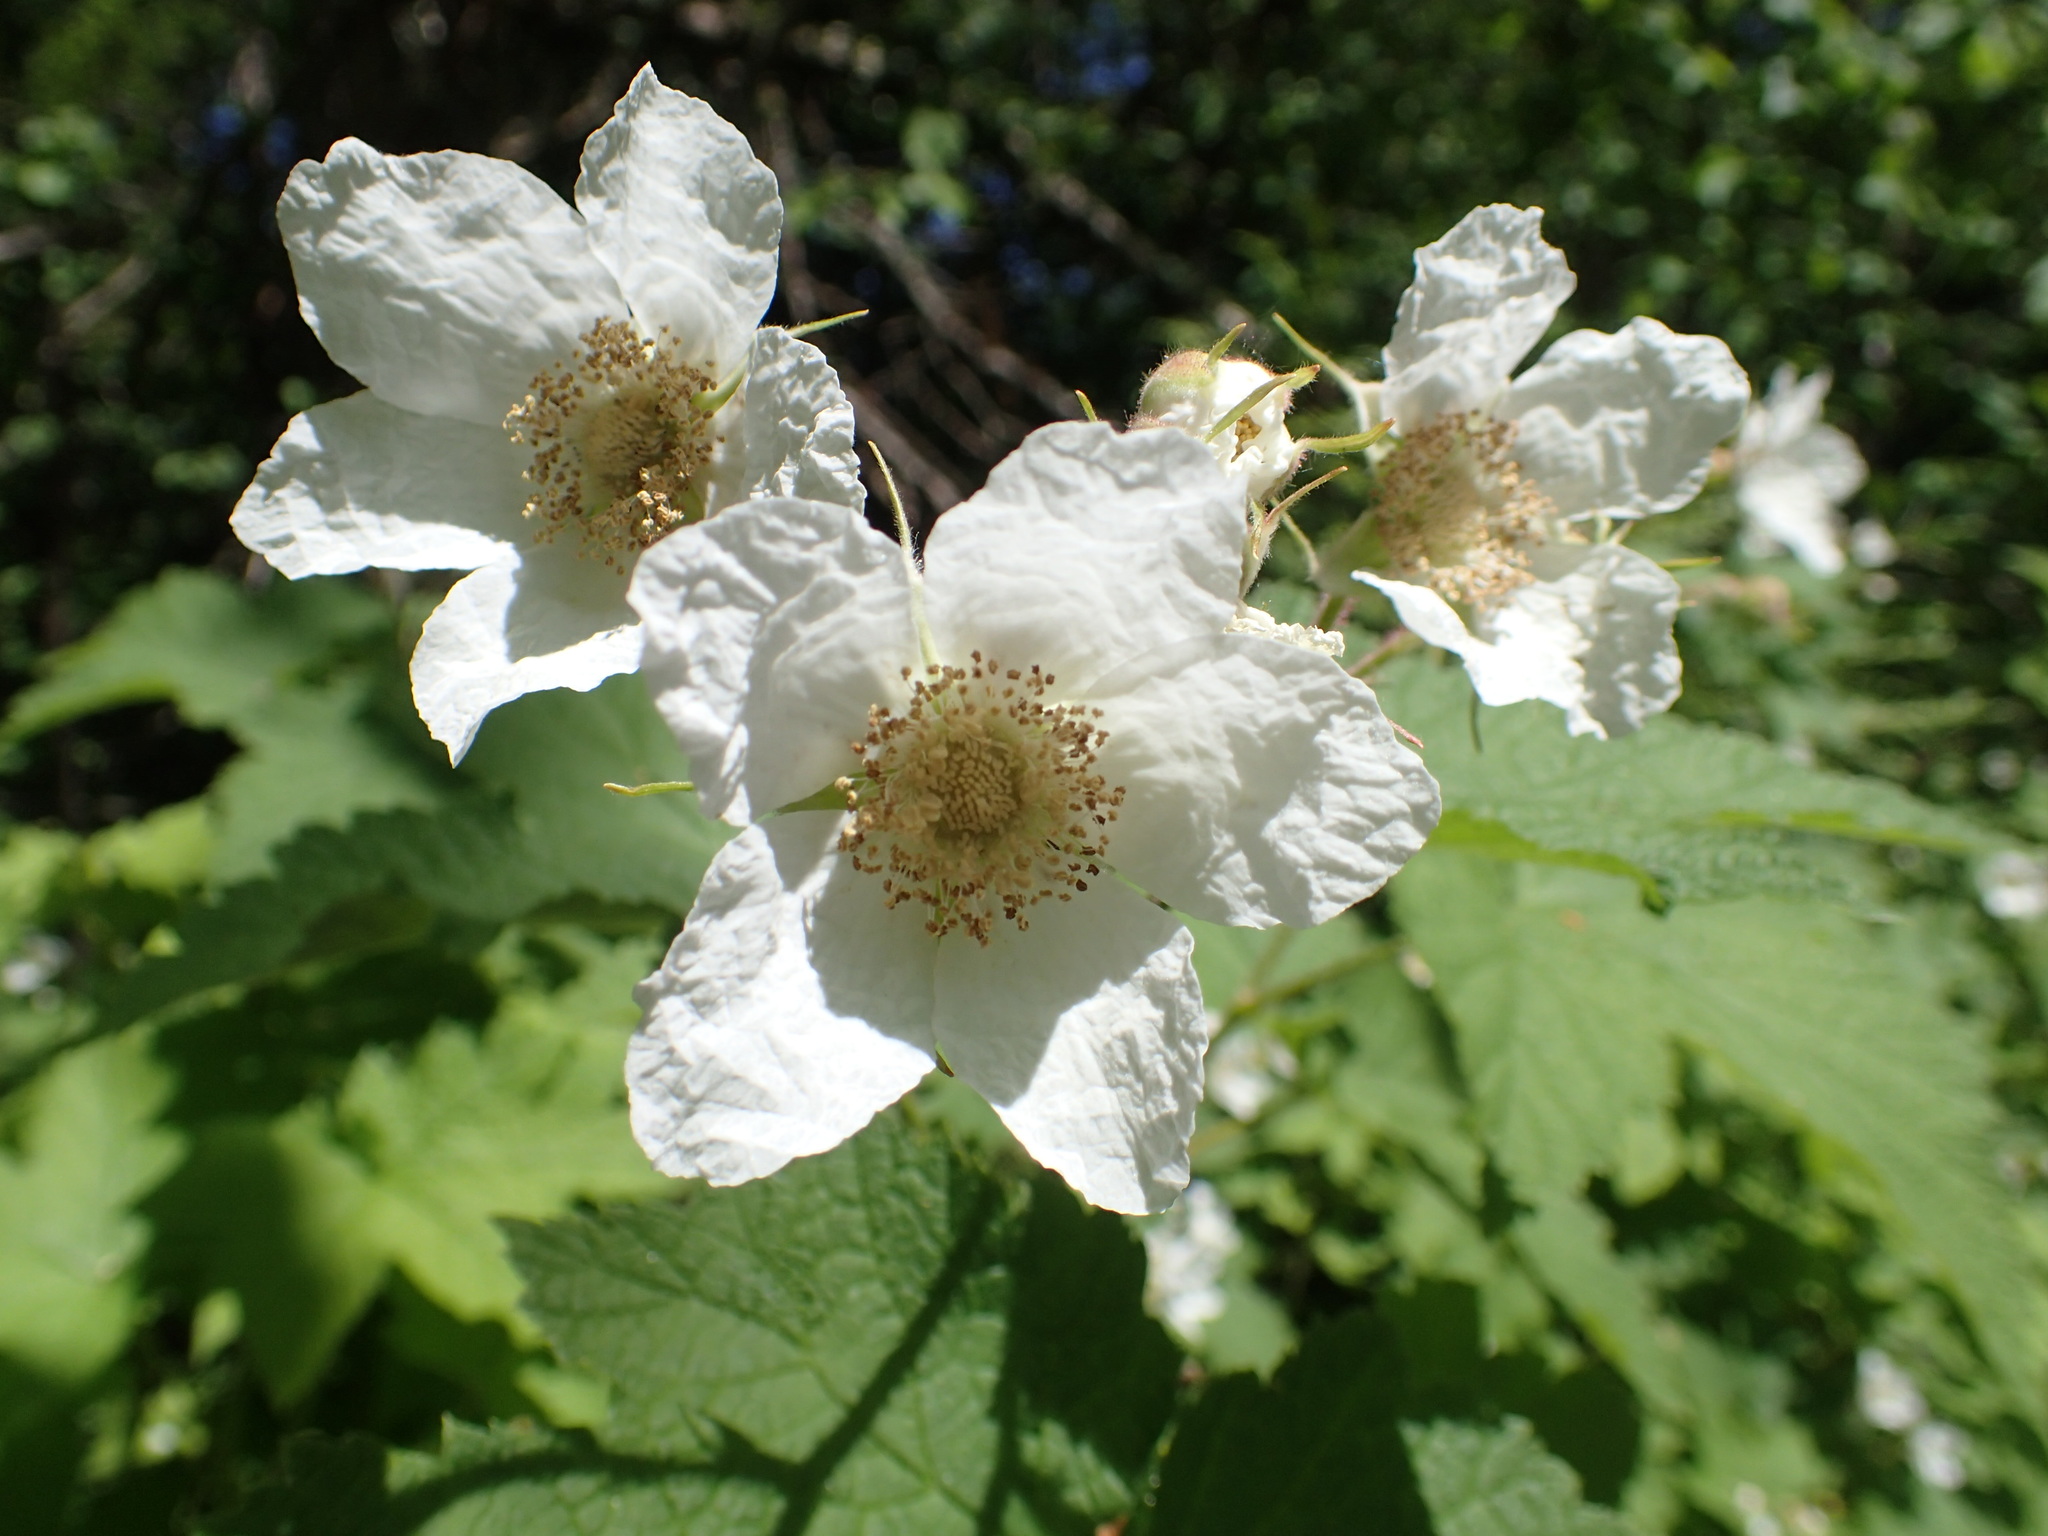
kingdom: Plantae
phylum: Tracheophyta
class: Magnoliopsida
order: Rosales
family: Rosaceae
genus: Rubus
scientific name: Rubus parviflorus
